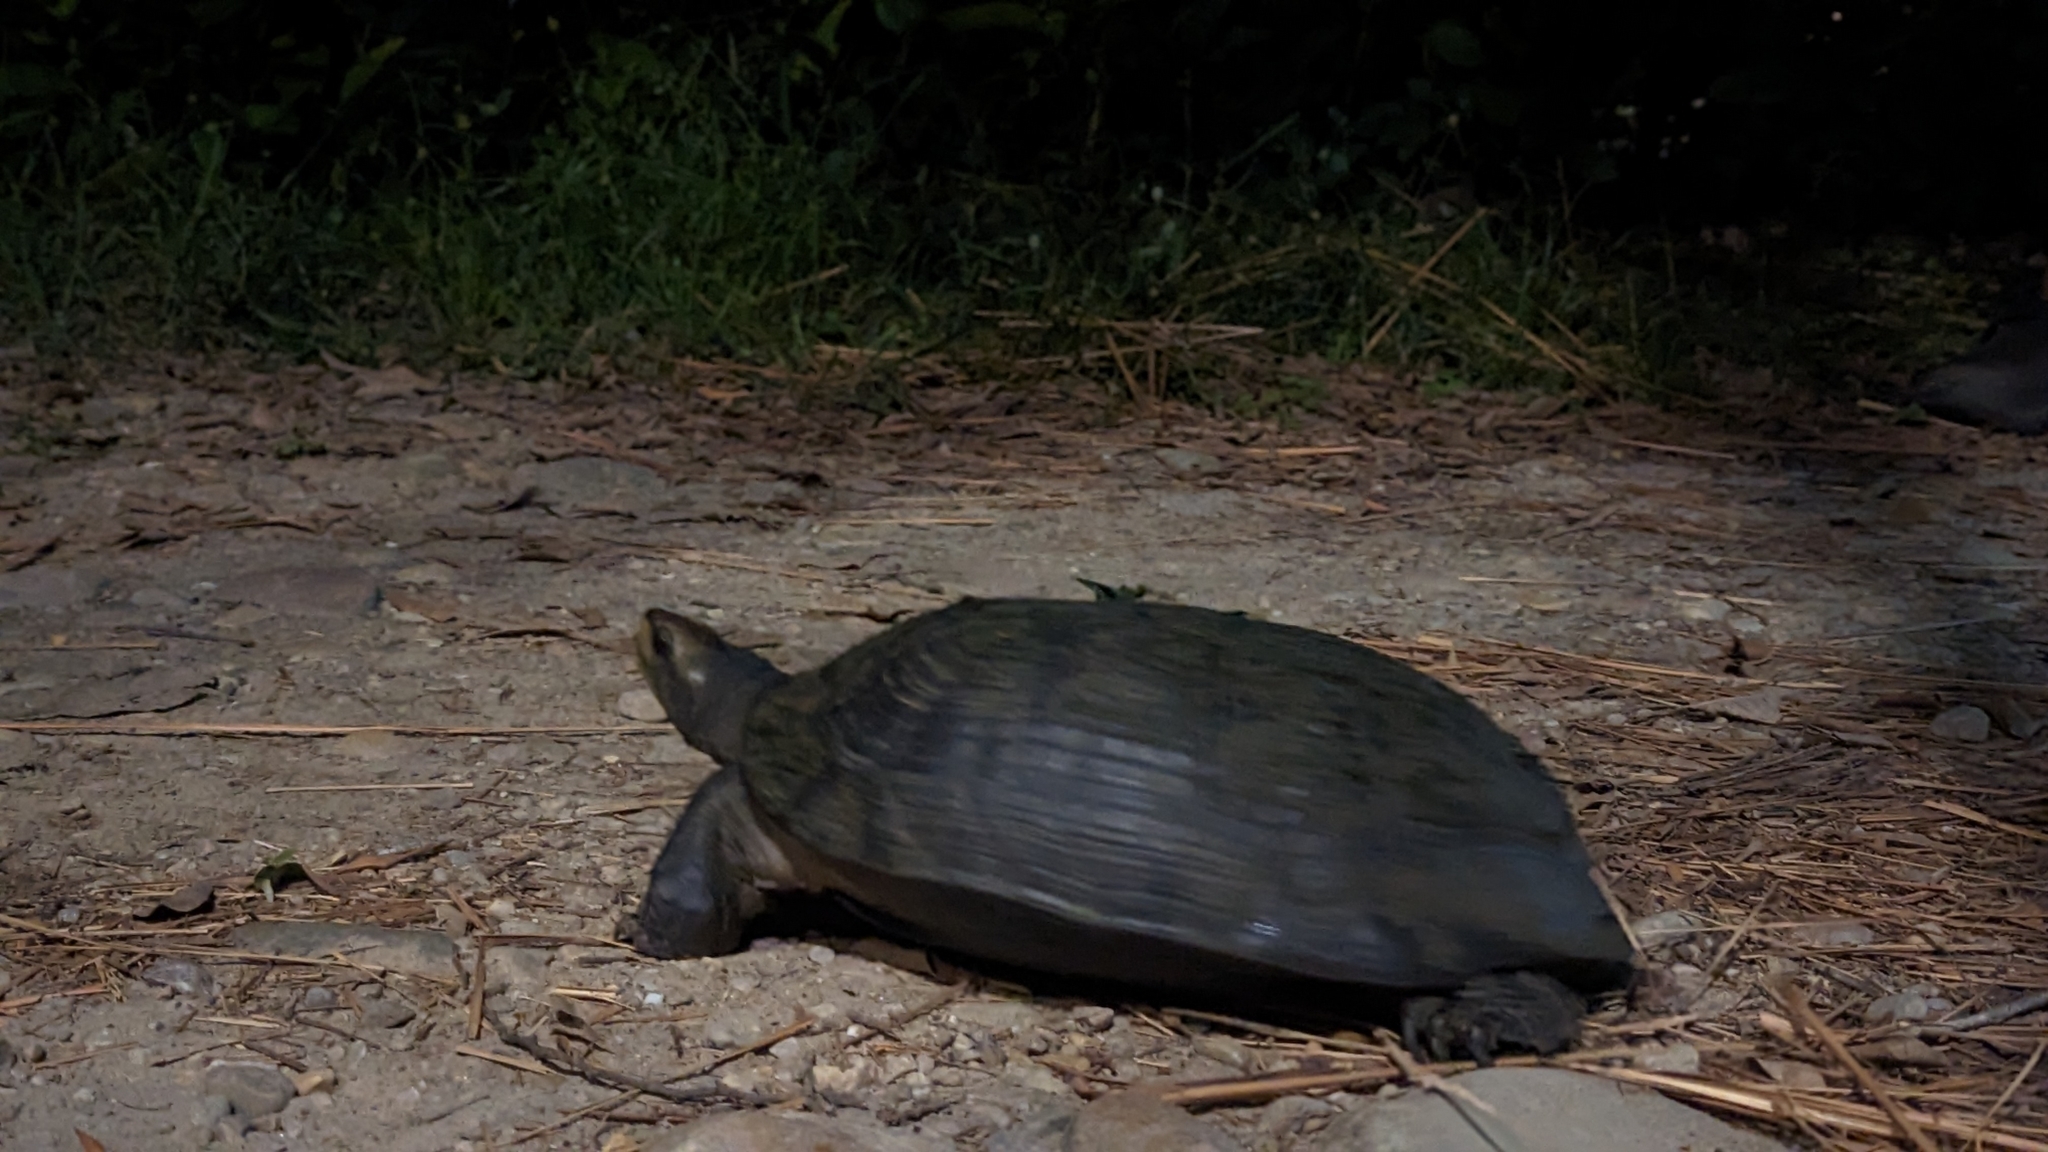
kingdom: Animalia
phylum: Chordata
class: Testudines
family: Geoemydidae
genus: Melanochelys
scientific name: Melanochelys trijuga
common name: Indian black turtle
